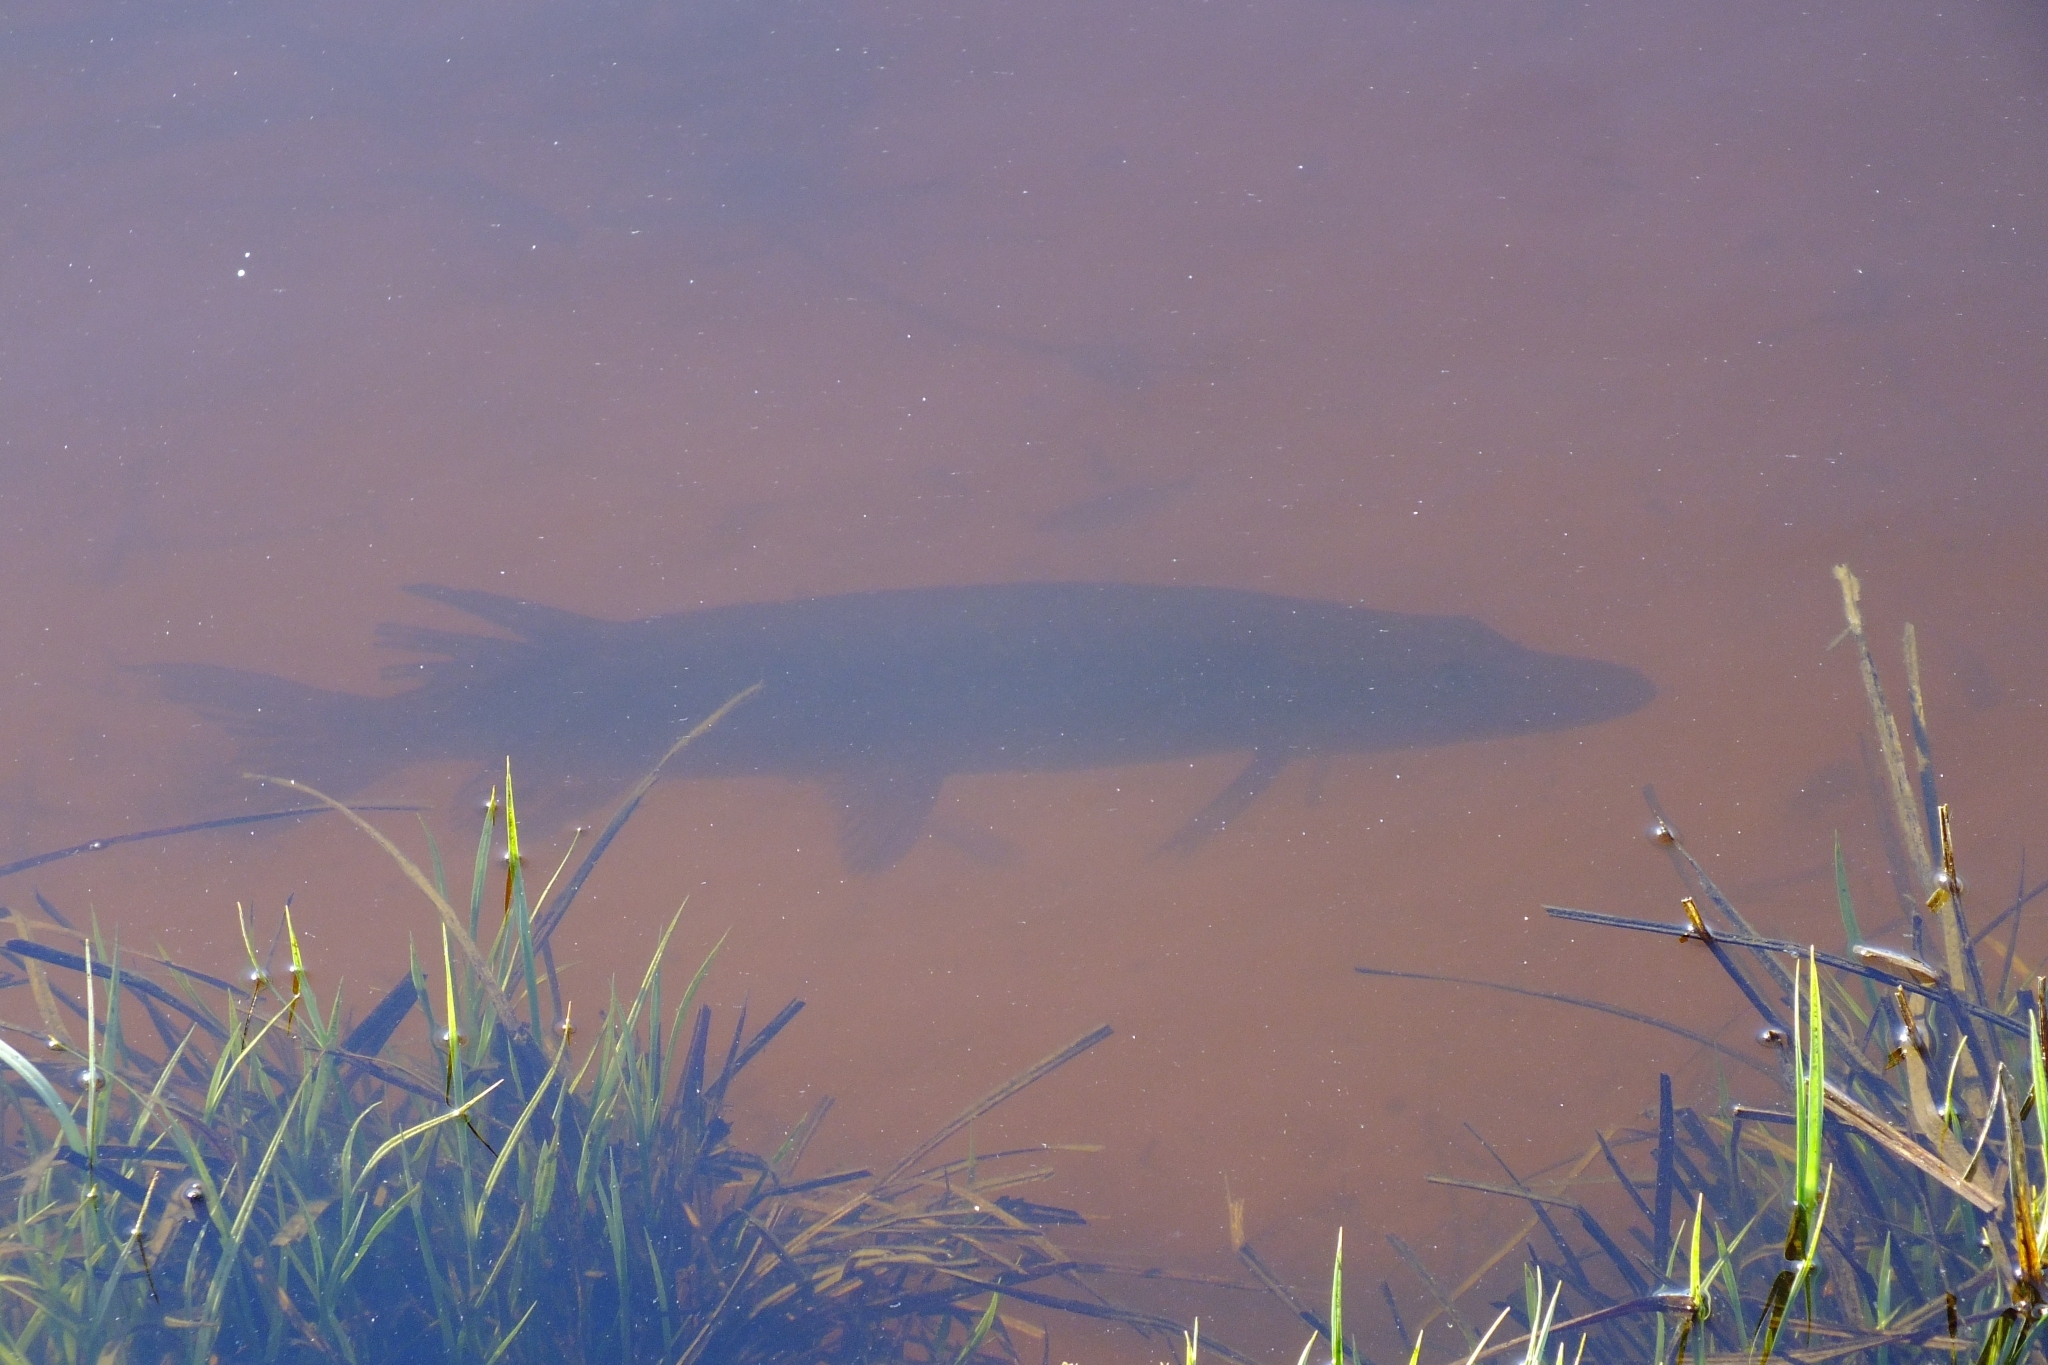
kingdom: Animalia
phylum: Chordata
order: Esociformes
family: Esocidae
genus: Esox
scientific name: Esox lucius
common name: Northern pike
